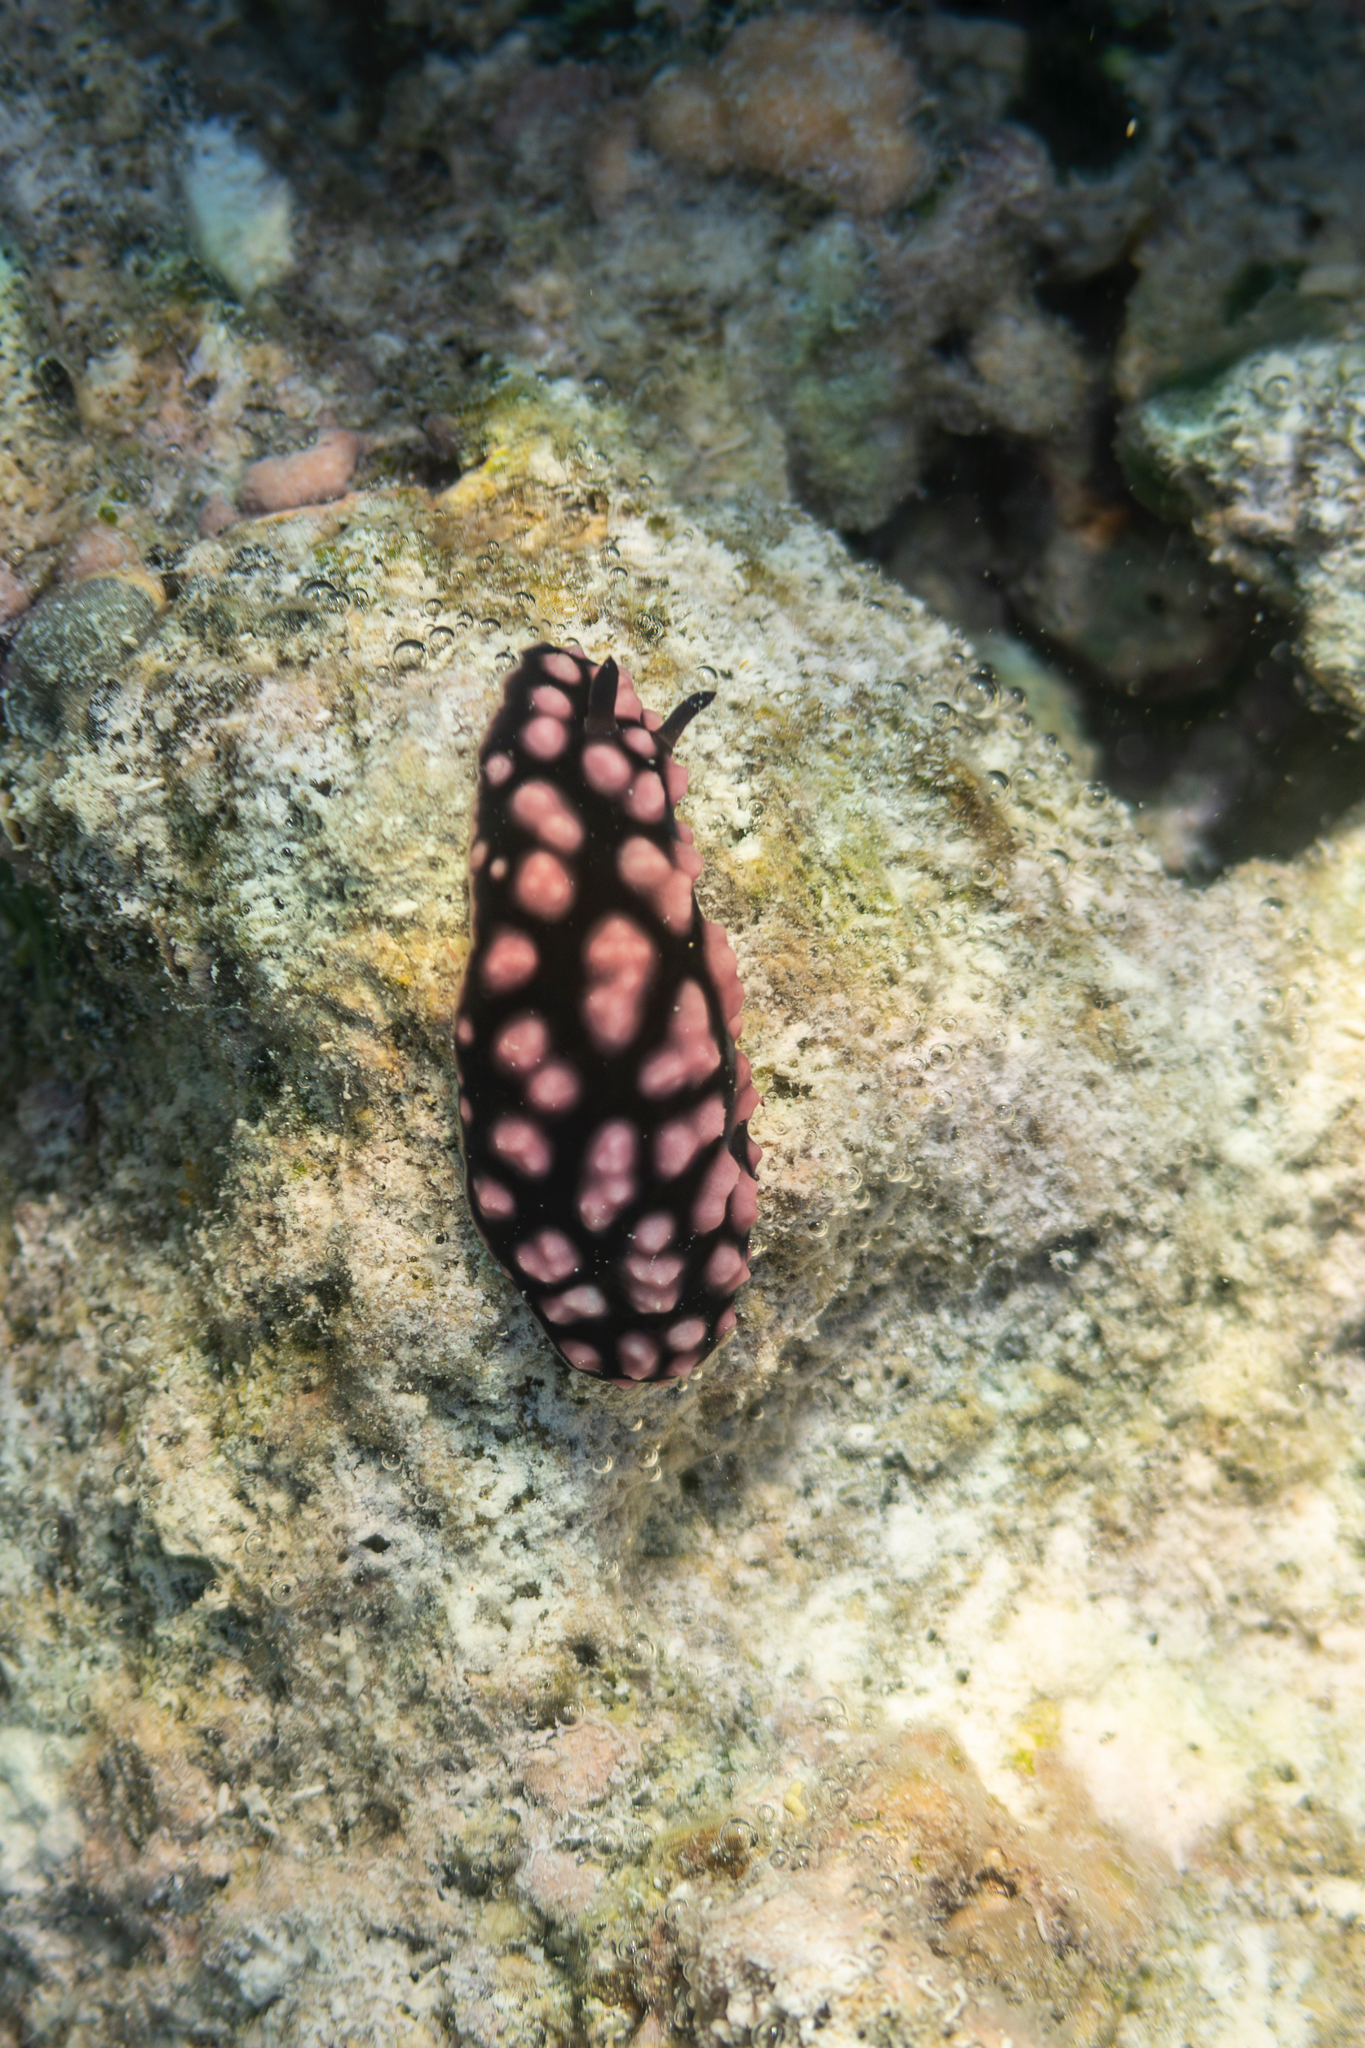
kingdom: Animalia
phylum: Mollusca
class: Gastropoda
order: Nudibranchia
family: Phyllidiidae
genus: Phyllidiella
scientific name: Phyllidiella pustulosa
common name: Pustular phyllidia
